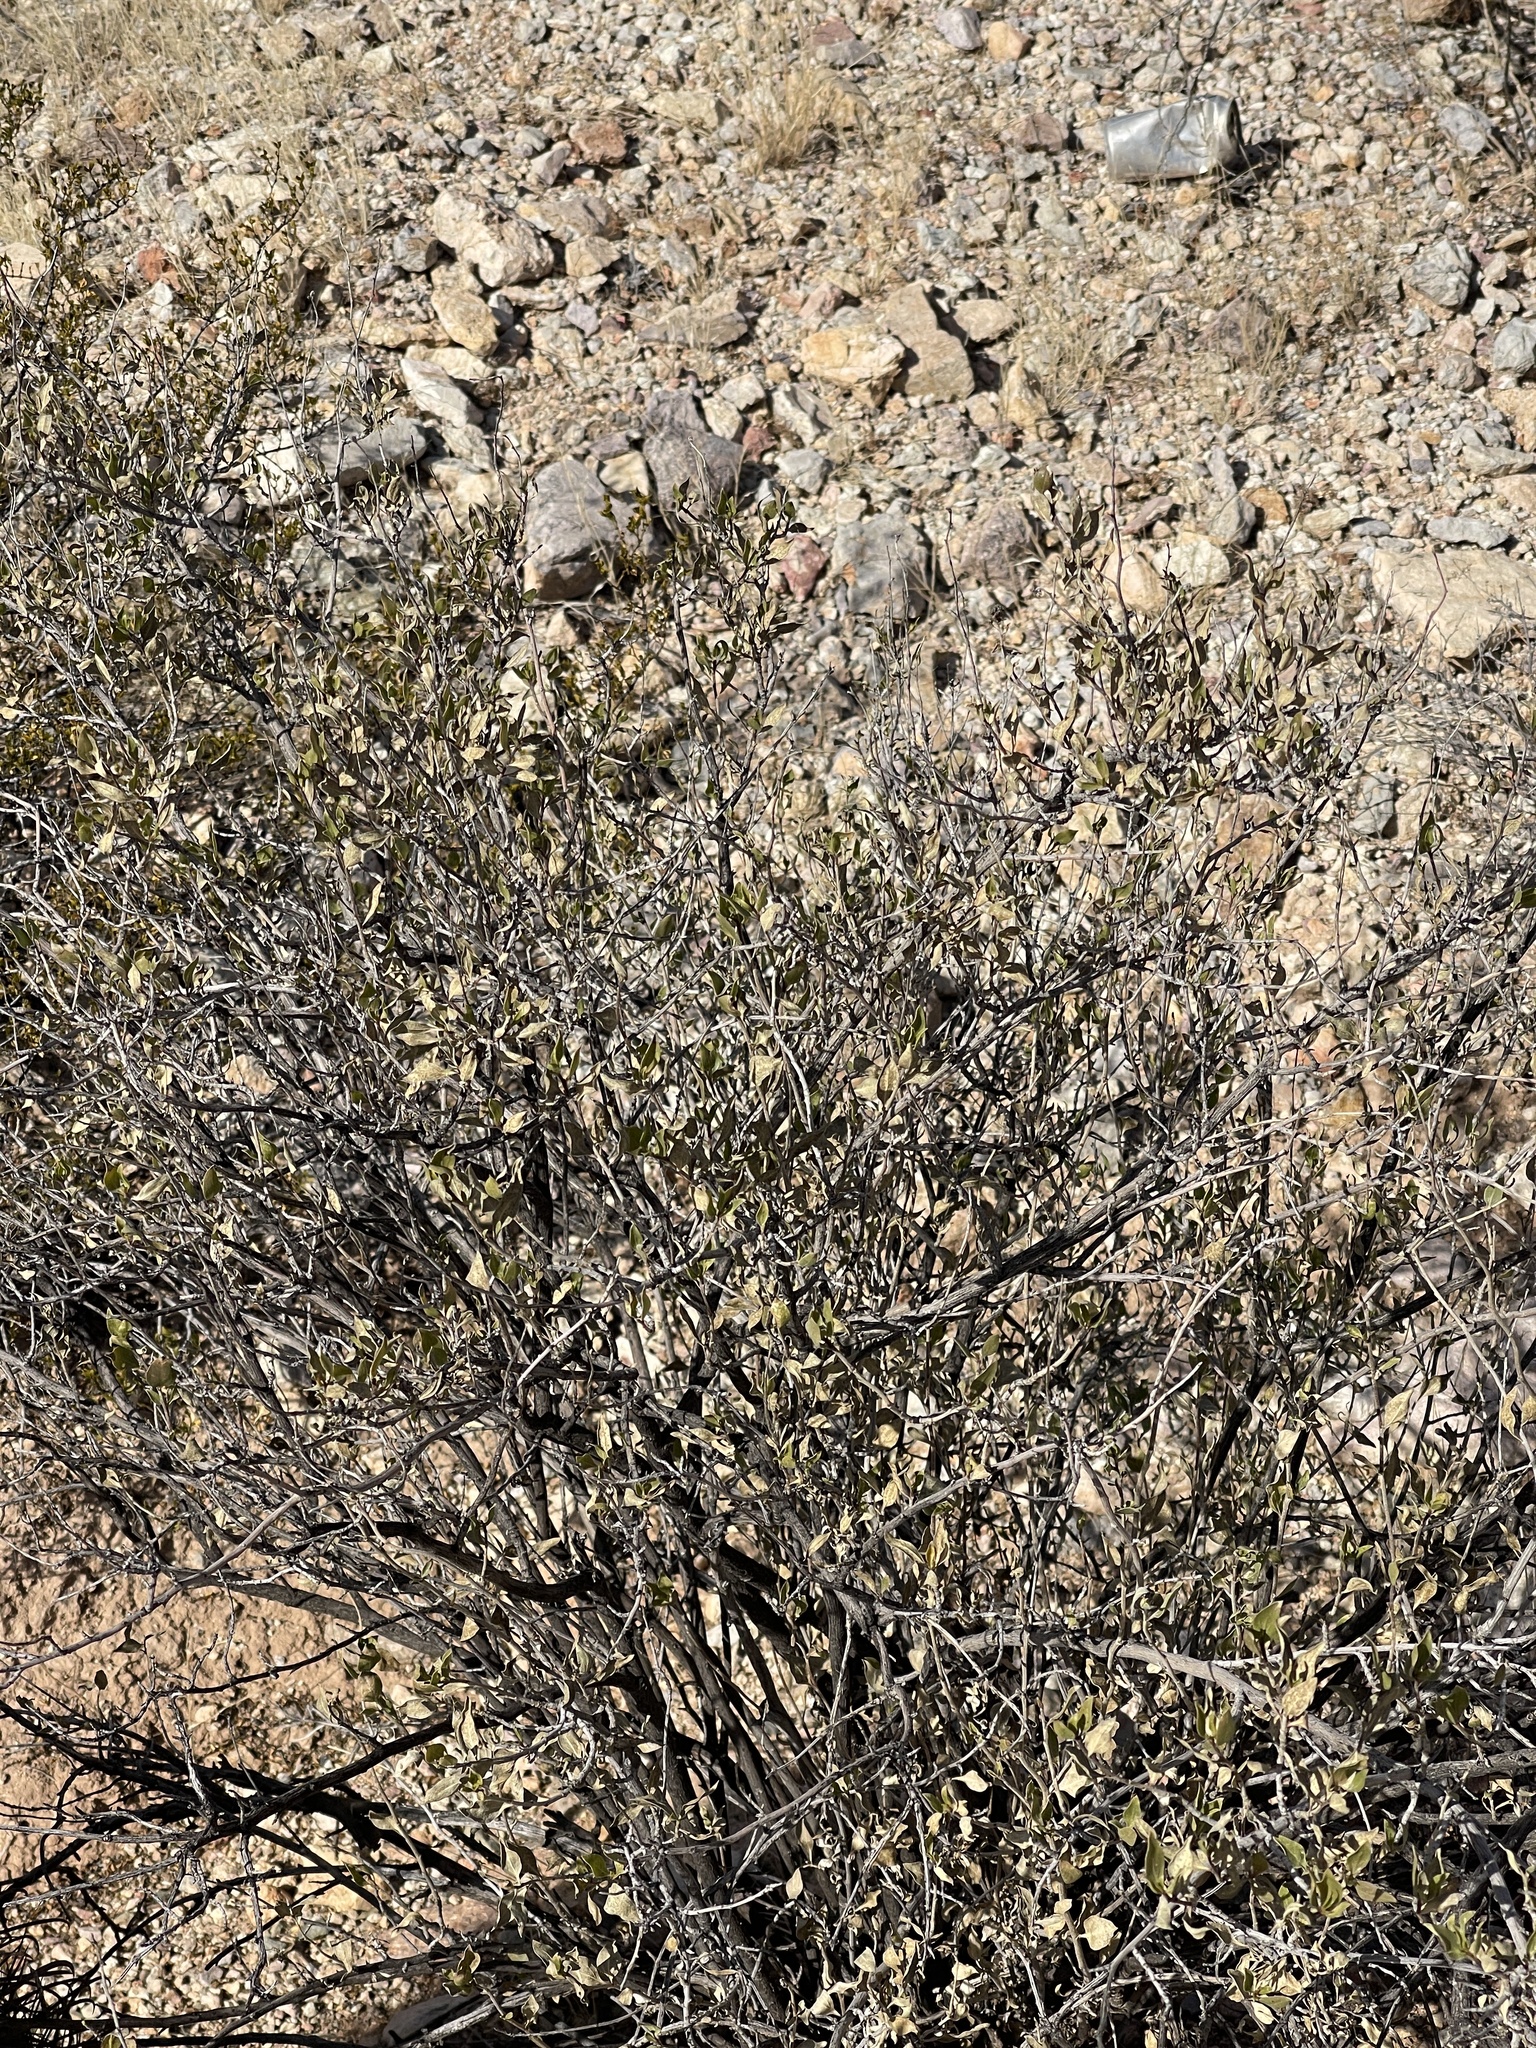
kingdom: Plantae
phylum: Tracheophyta
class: Magnoliopsida
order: Asterales
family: Asteraceae
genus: Flourensia
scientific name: Flourensia cernua
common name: Varnishbush
